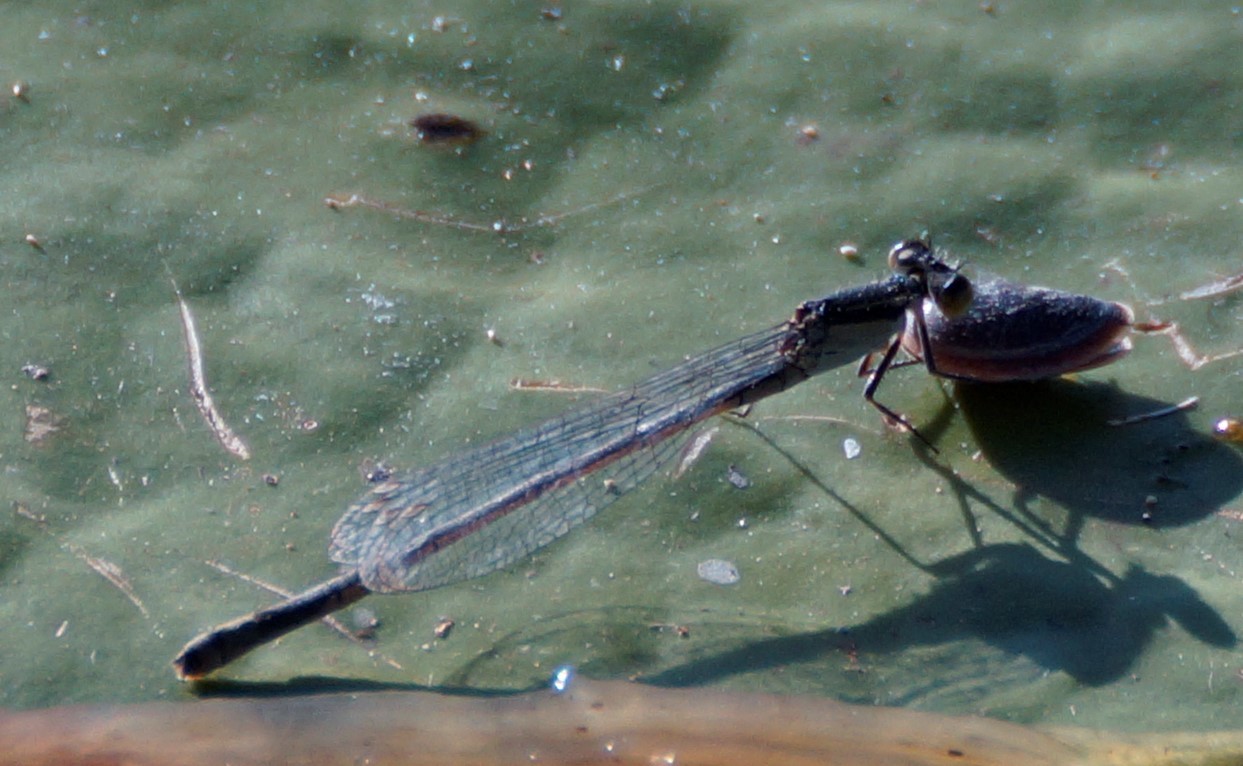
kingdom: Animalia
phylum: Arthropoda
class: Insecta
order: Odonata
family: Coenagrionidae
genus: Ischnura
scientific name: Ischnura heterosticta
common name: Common bluetail
